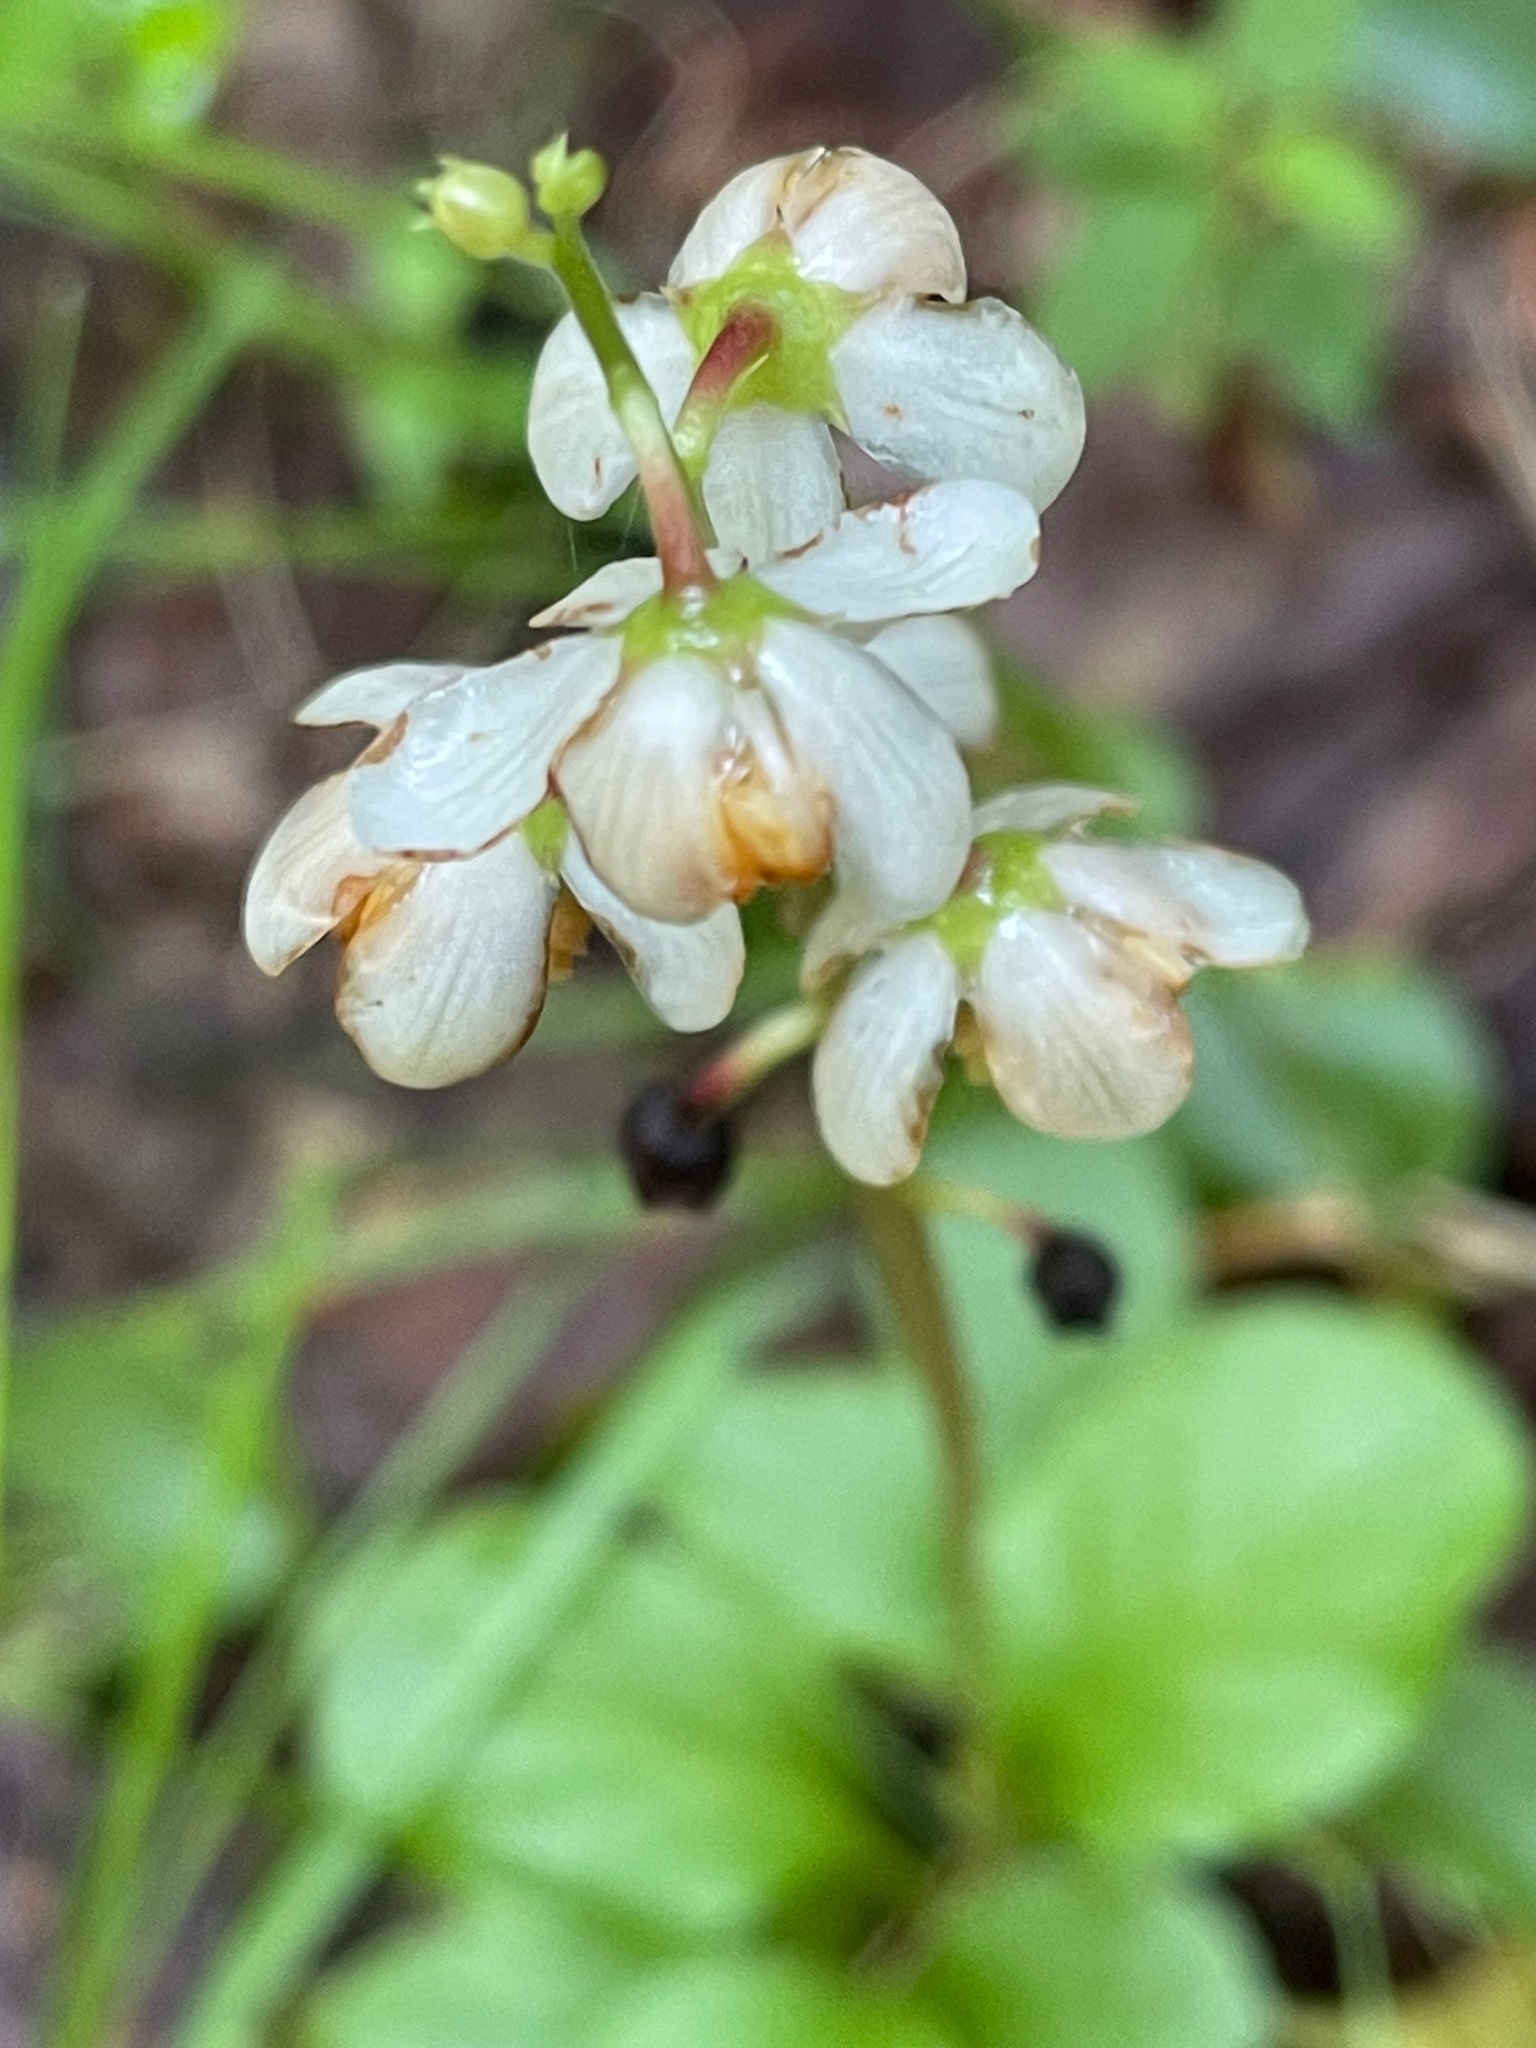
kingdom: Plantae
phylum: Tracheophyta
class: Magnoliopsida
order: Ericales
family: Ericaceae
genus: Pyrola
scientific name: Pyrola elliptica
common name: Shinleaf
